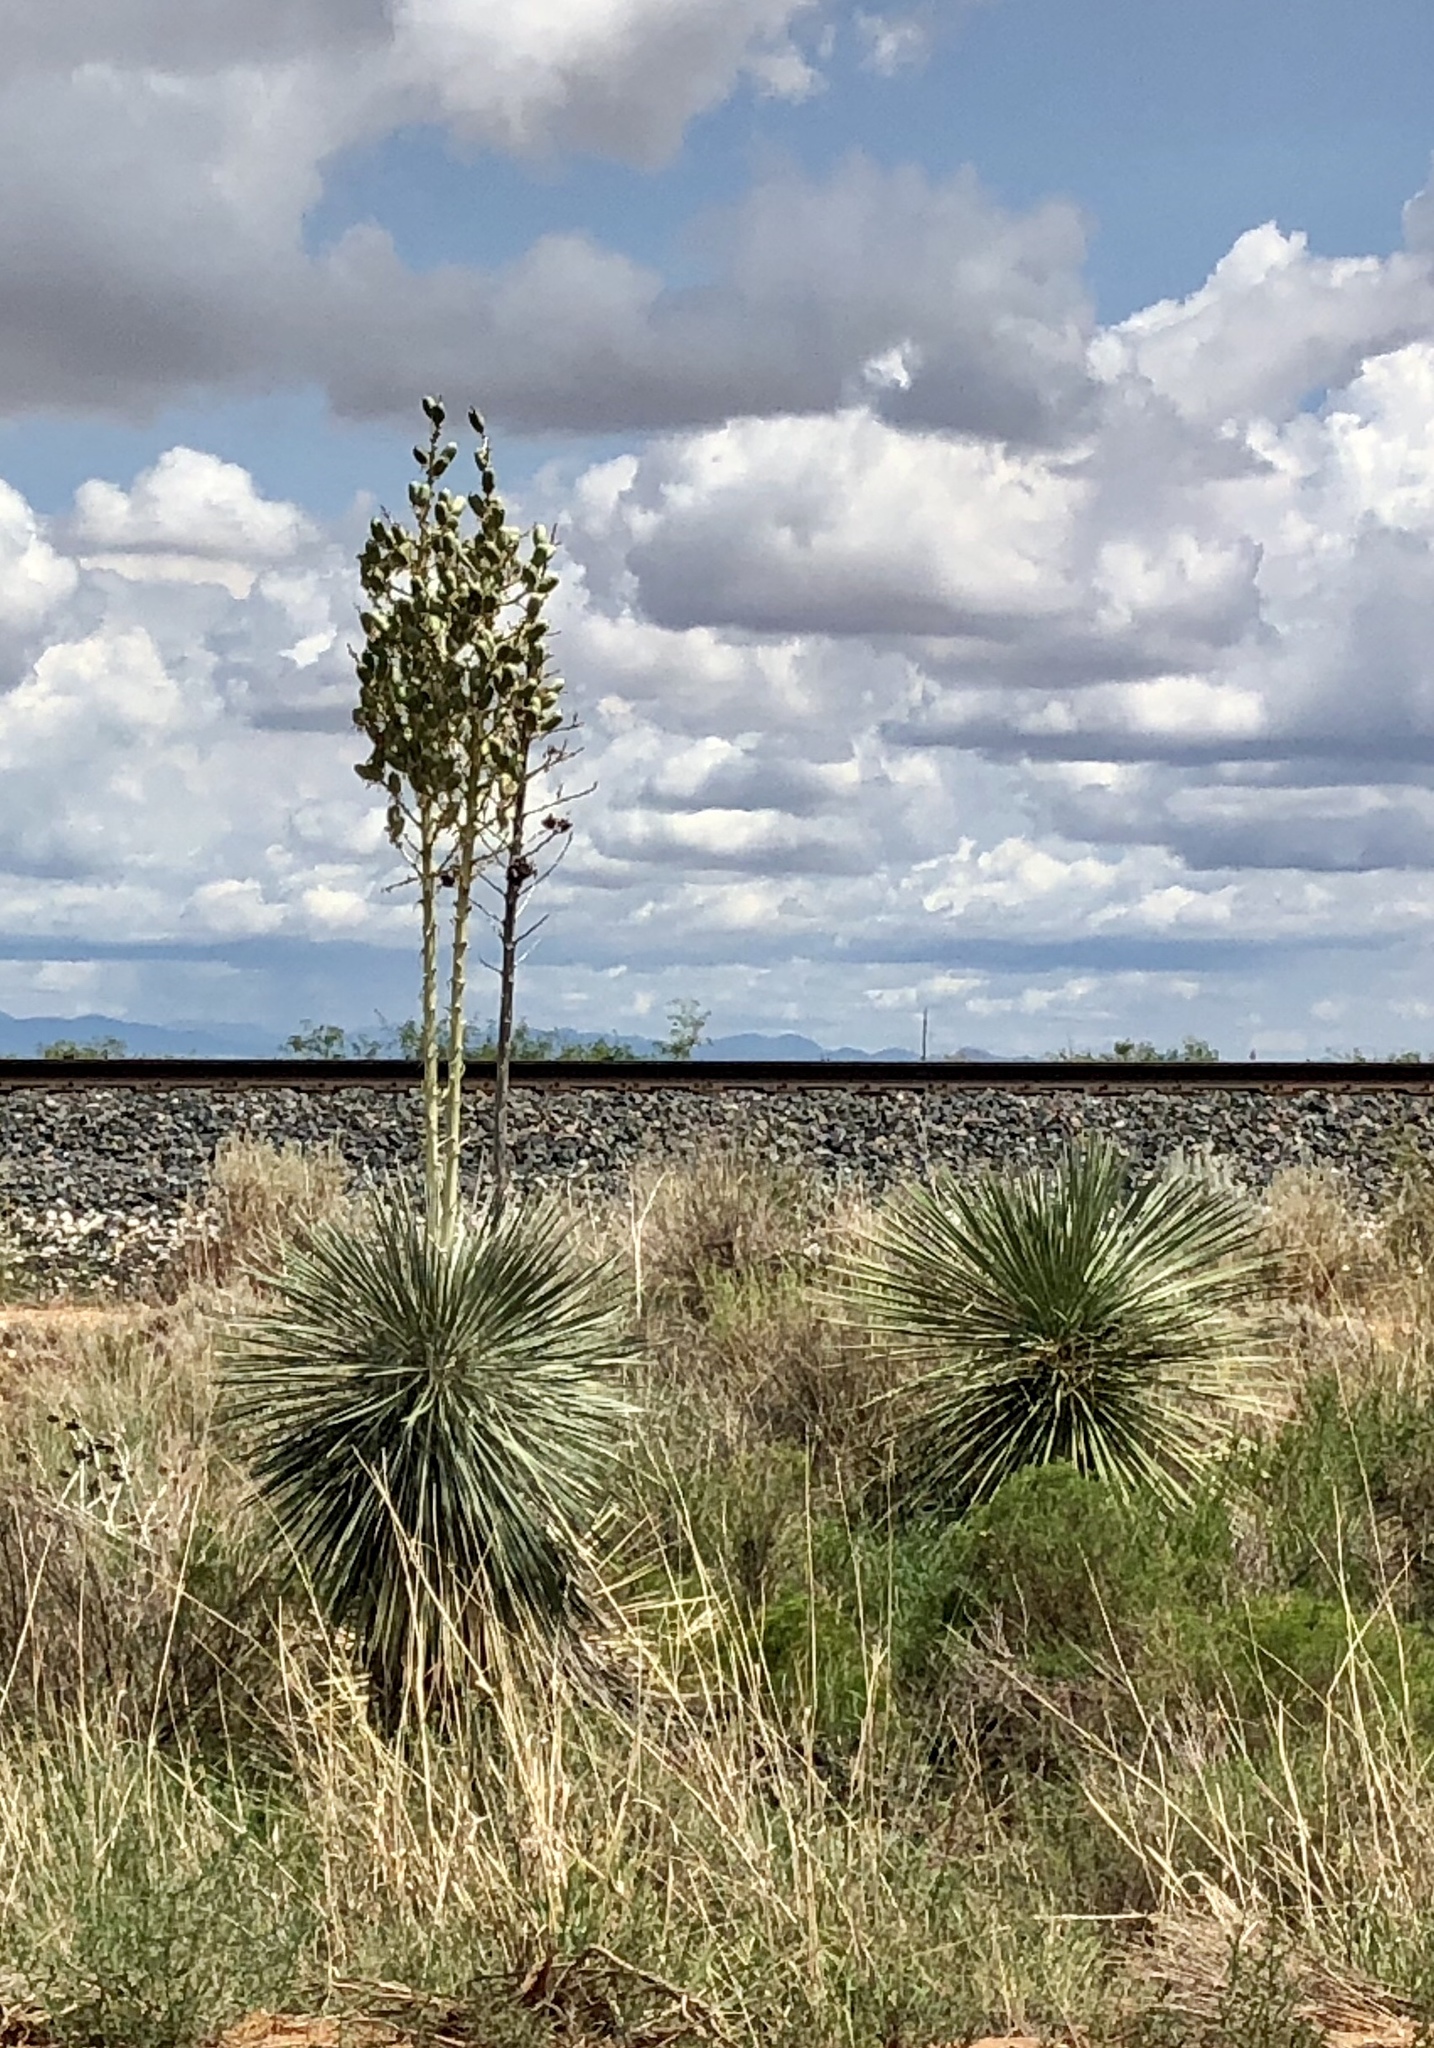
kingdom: Plantae
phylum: Tracheophyta
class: Liliopsida
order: Asparagales
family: Asparagaceae
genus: Yucca
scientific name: Yucca elata
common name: Palmella
